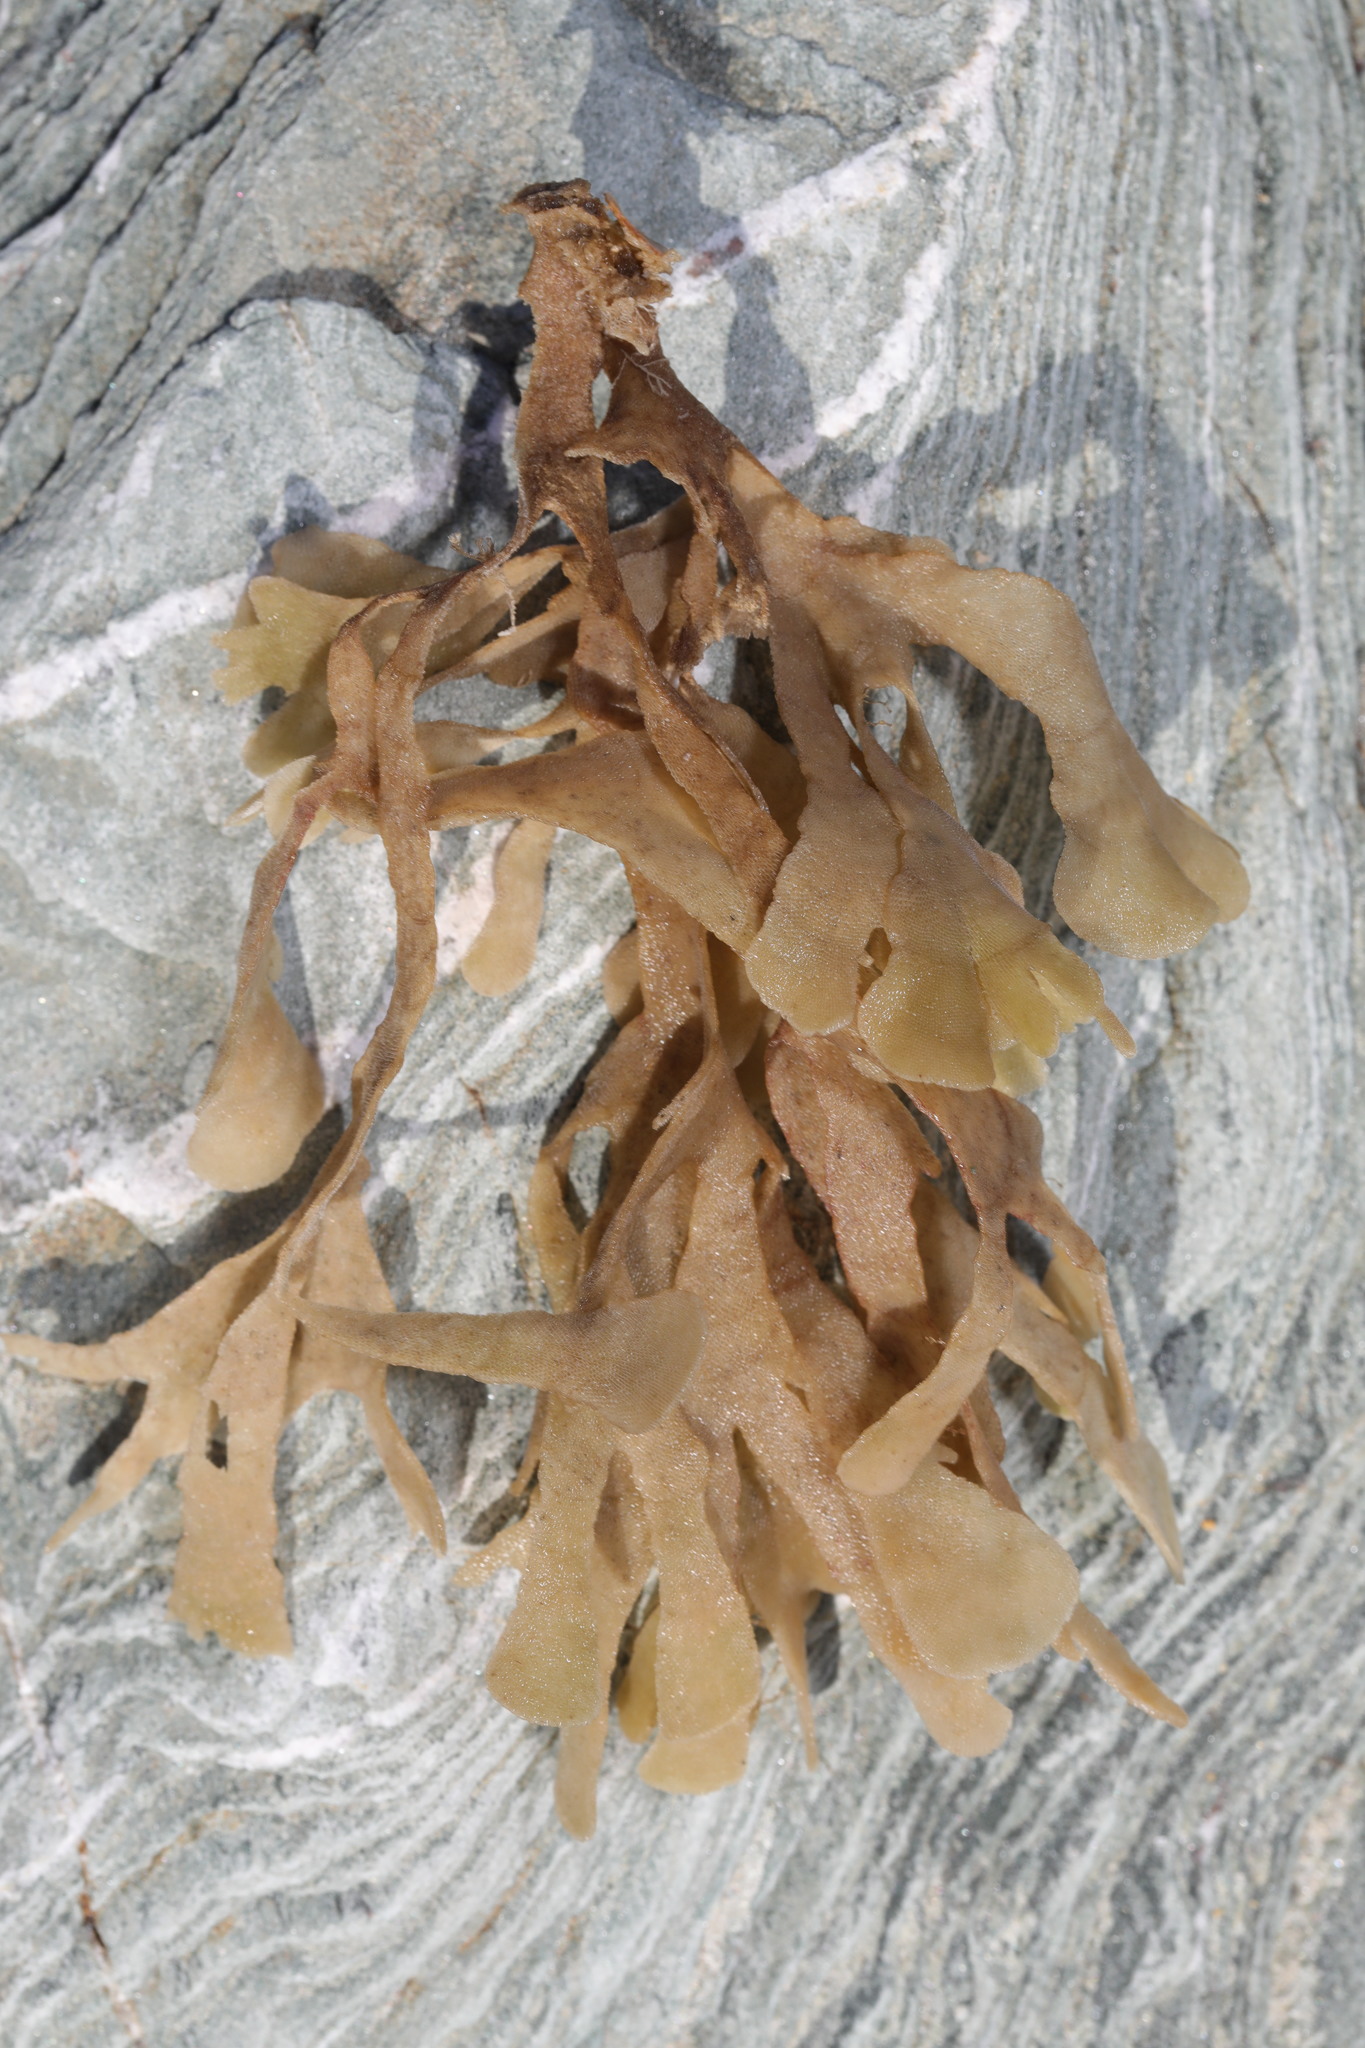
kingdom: Animalia
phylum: Bryozoa
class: Gymnolaemata
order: Cheilostomatida
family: Flustridae
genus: Flustra
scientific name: Flustra foliacea
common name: Hornwrack
